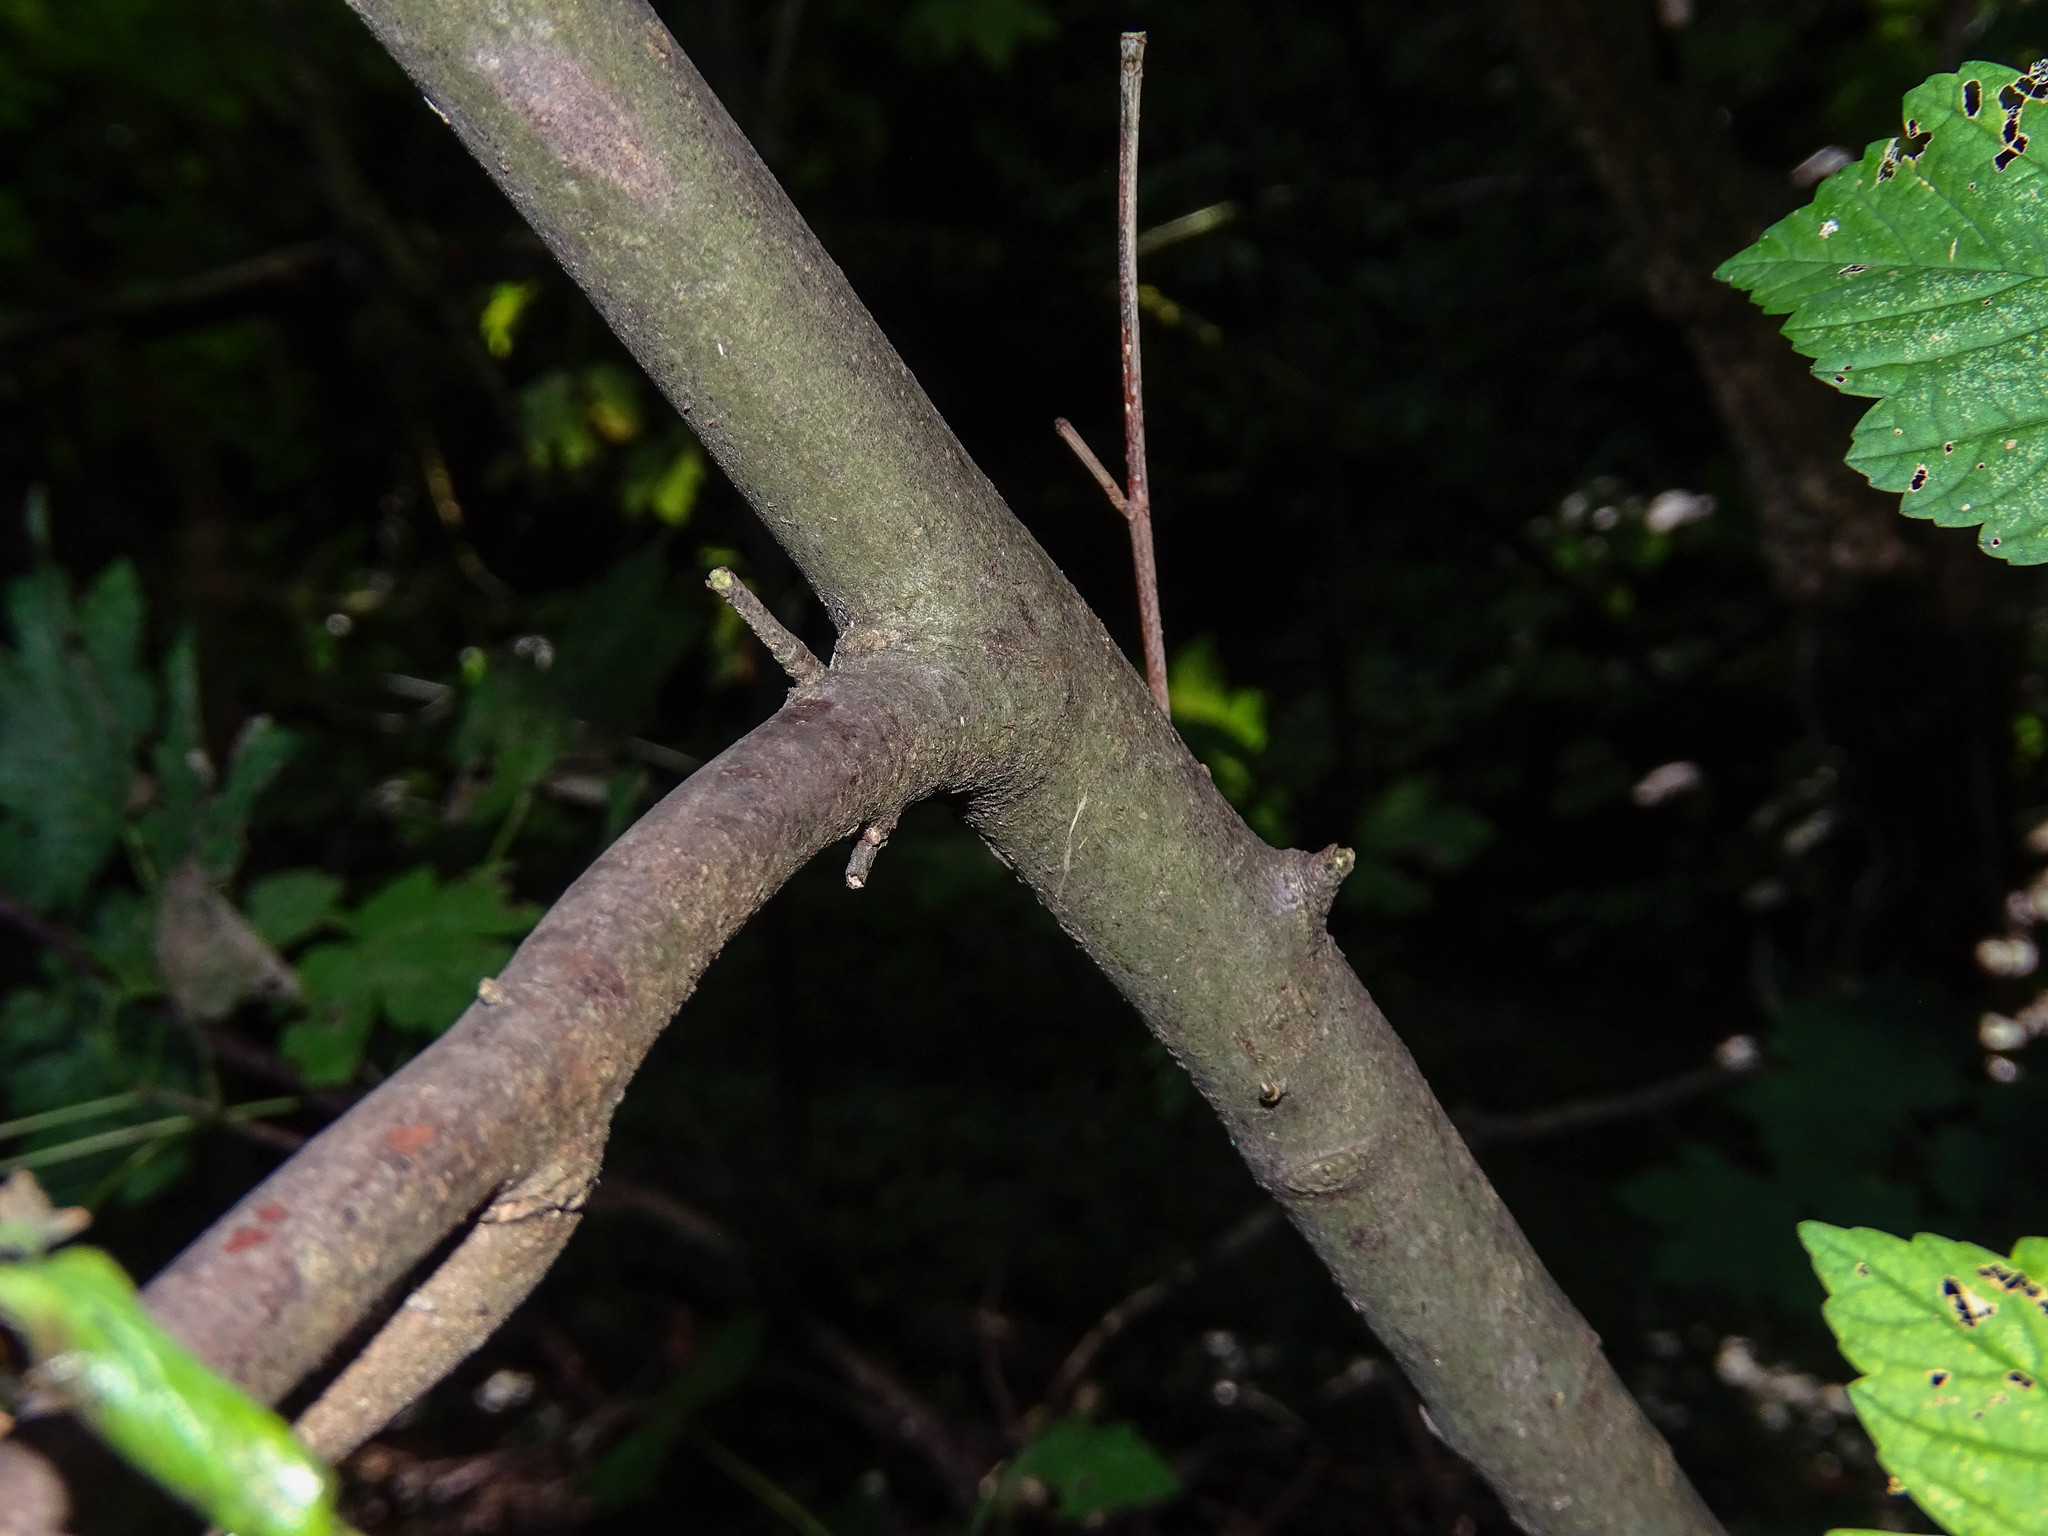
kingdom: Plantae
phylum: Tracheophyta
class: Magnoliopsida
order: Sapindales
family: Sapindaceae
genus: Acer
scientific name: Acer pseudoplatanus
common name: Sycamore
